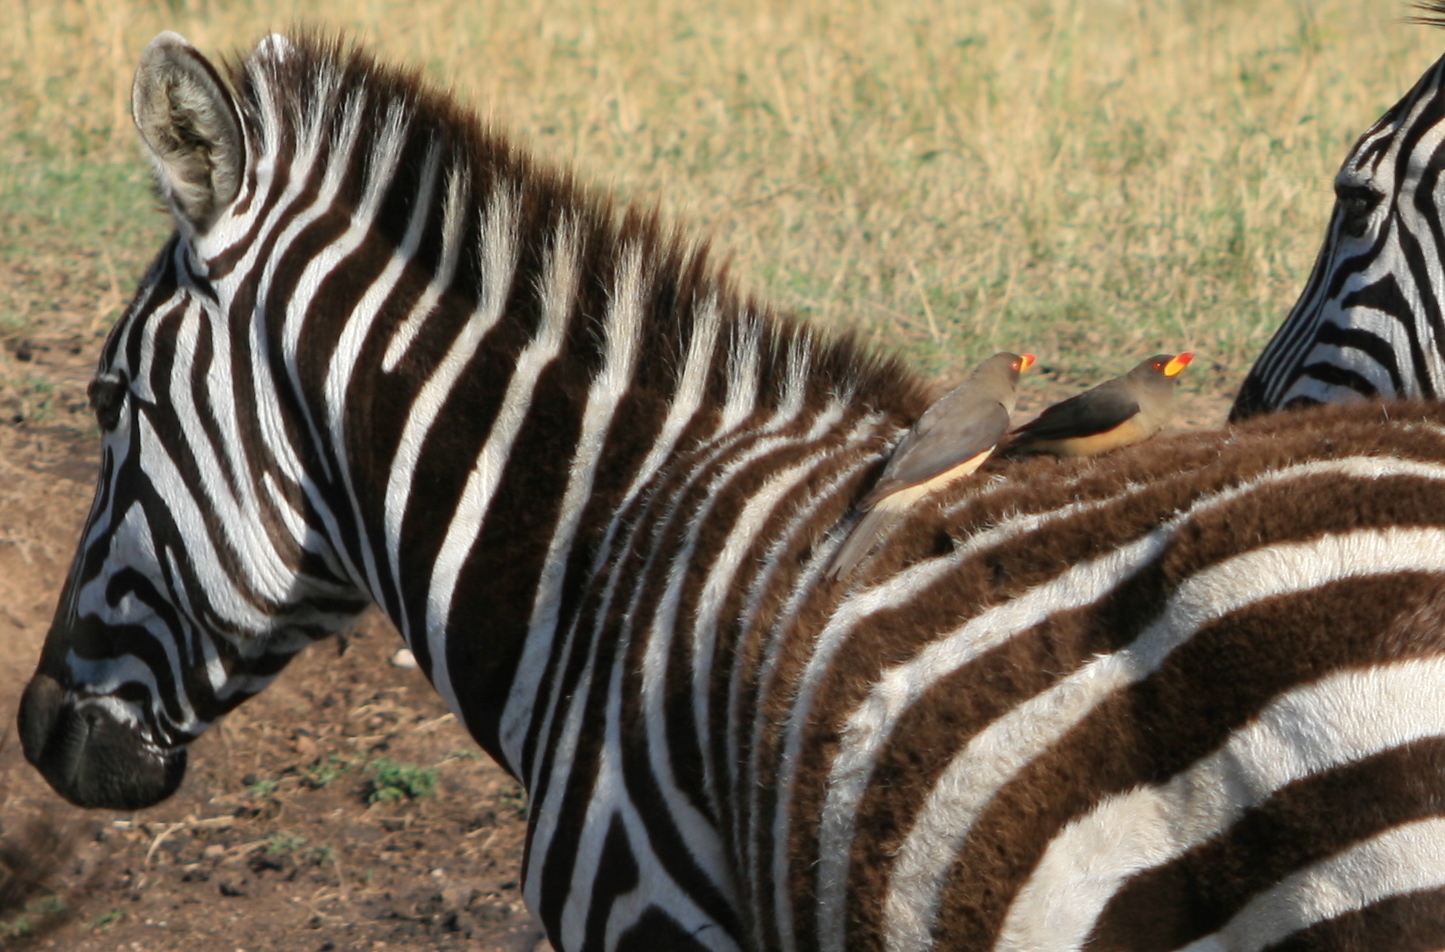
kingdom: Animalia
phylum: Chordata
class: Aves
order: Passeriformes
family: Buphagidae
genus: Buphagus
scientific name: Buphagus africanus
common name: Yellow-billed oxpecker
